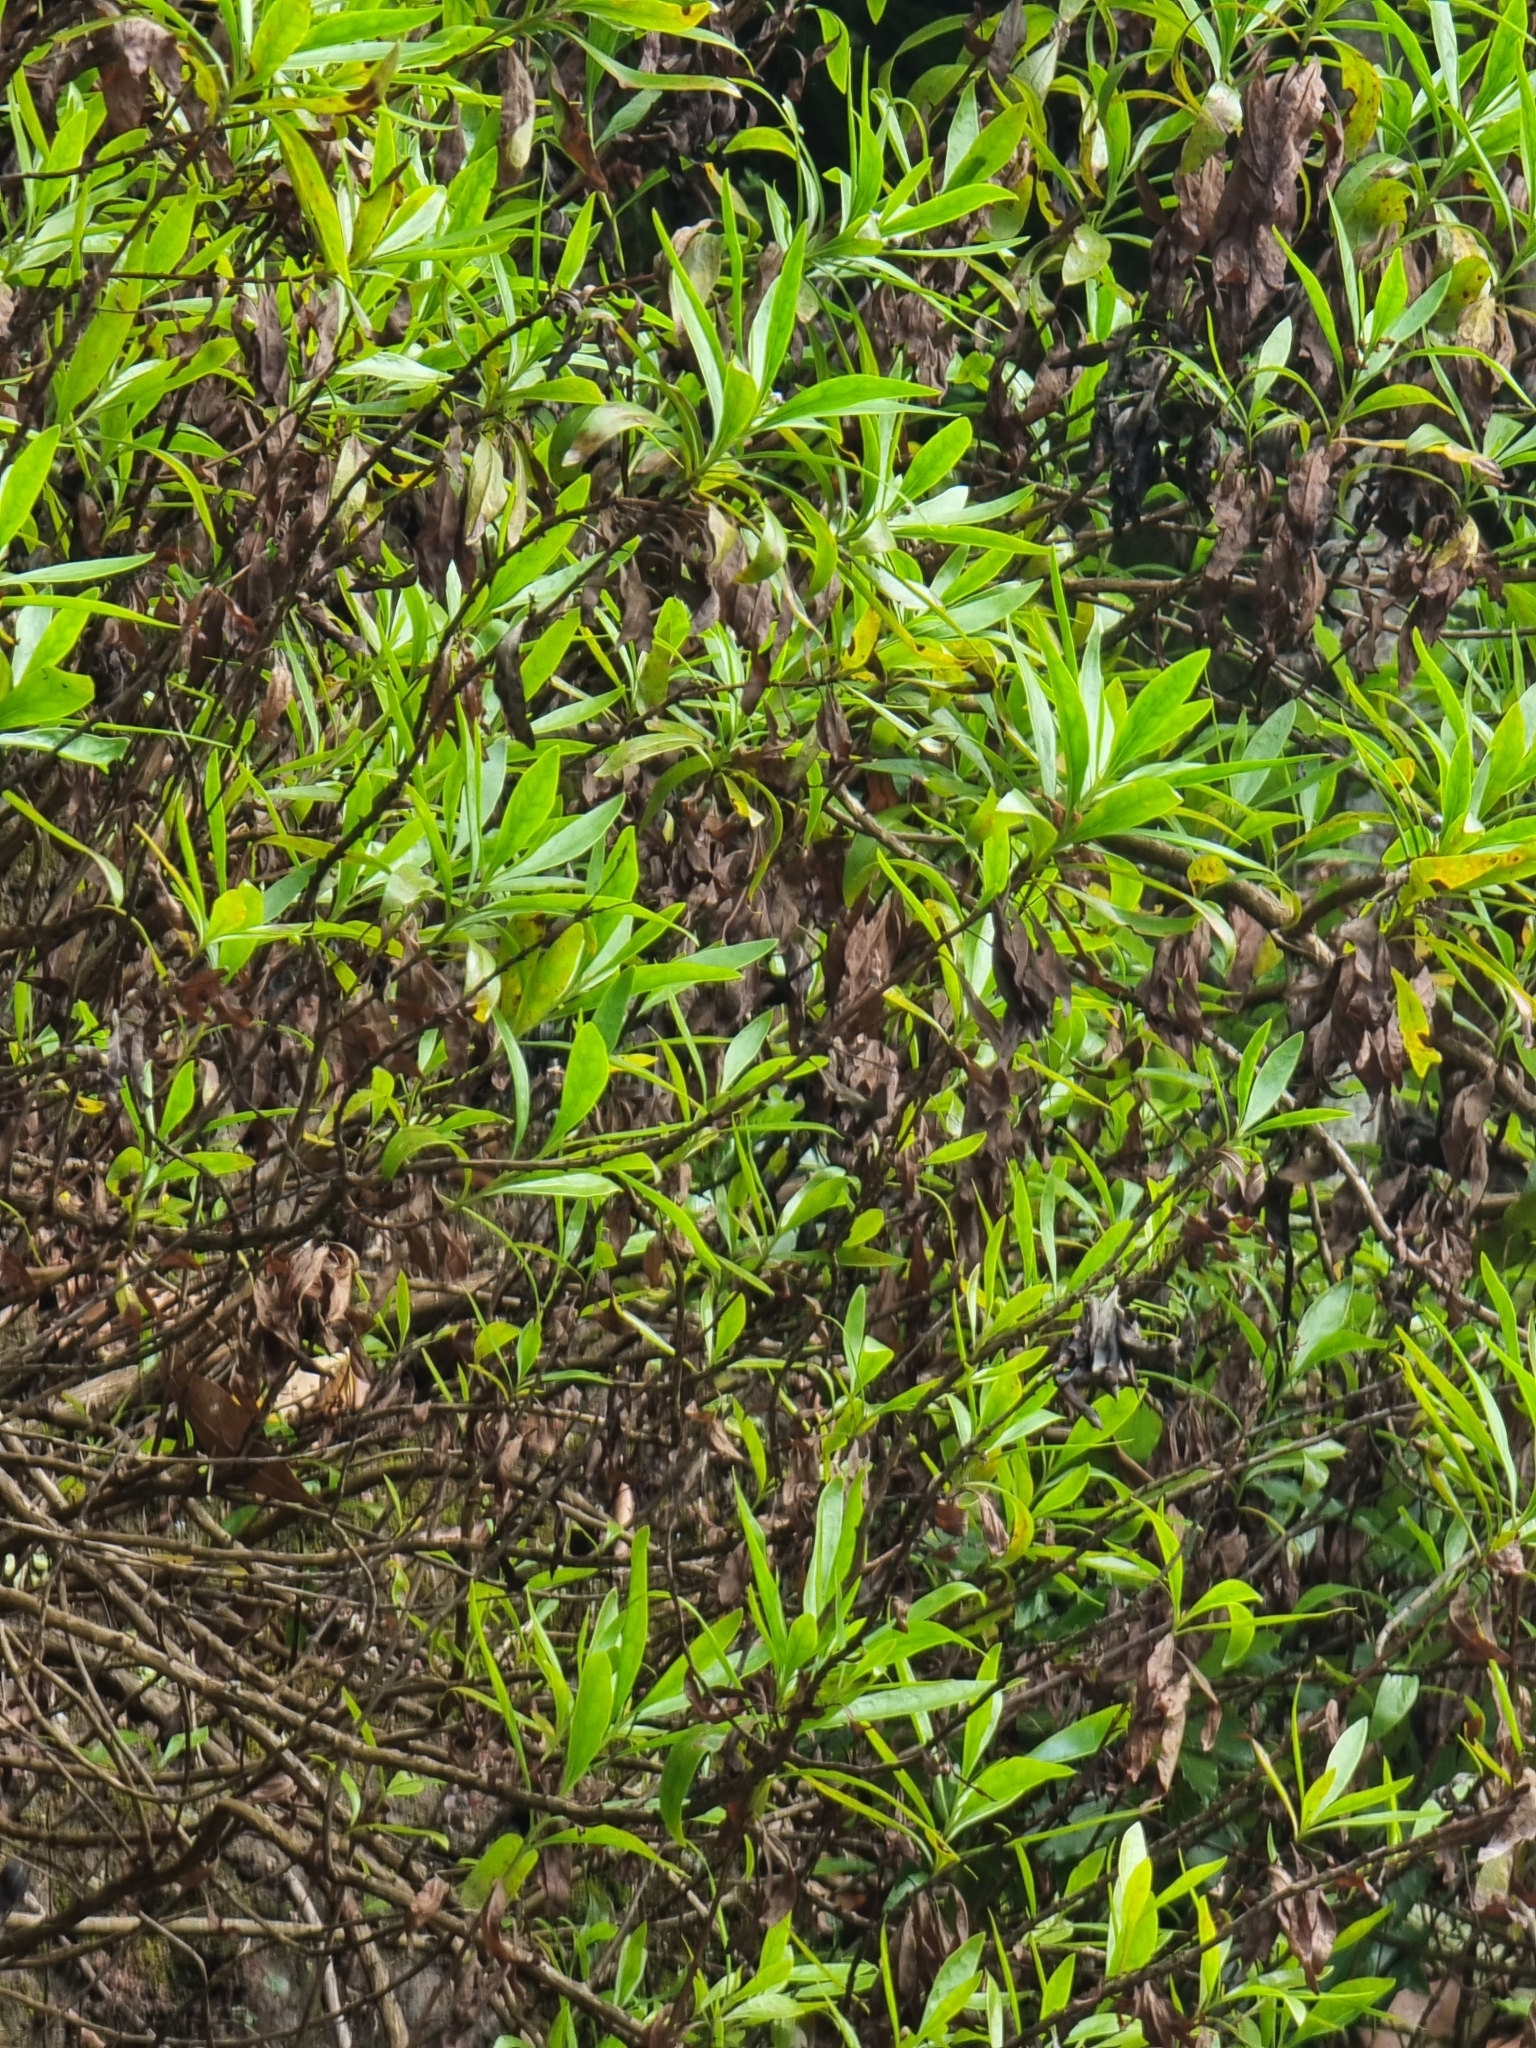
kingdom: Plantae
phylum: Tracheophyta
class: Magnoliopsida
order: Lamiales
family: Plantaginaceae
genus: Globularia
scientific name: Globularia salicina
